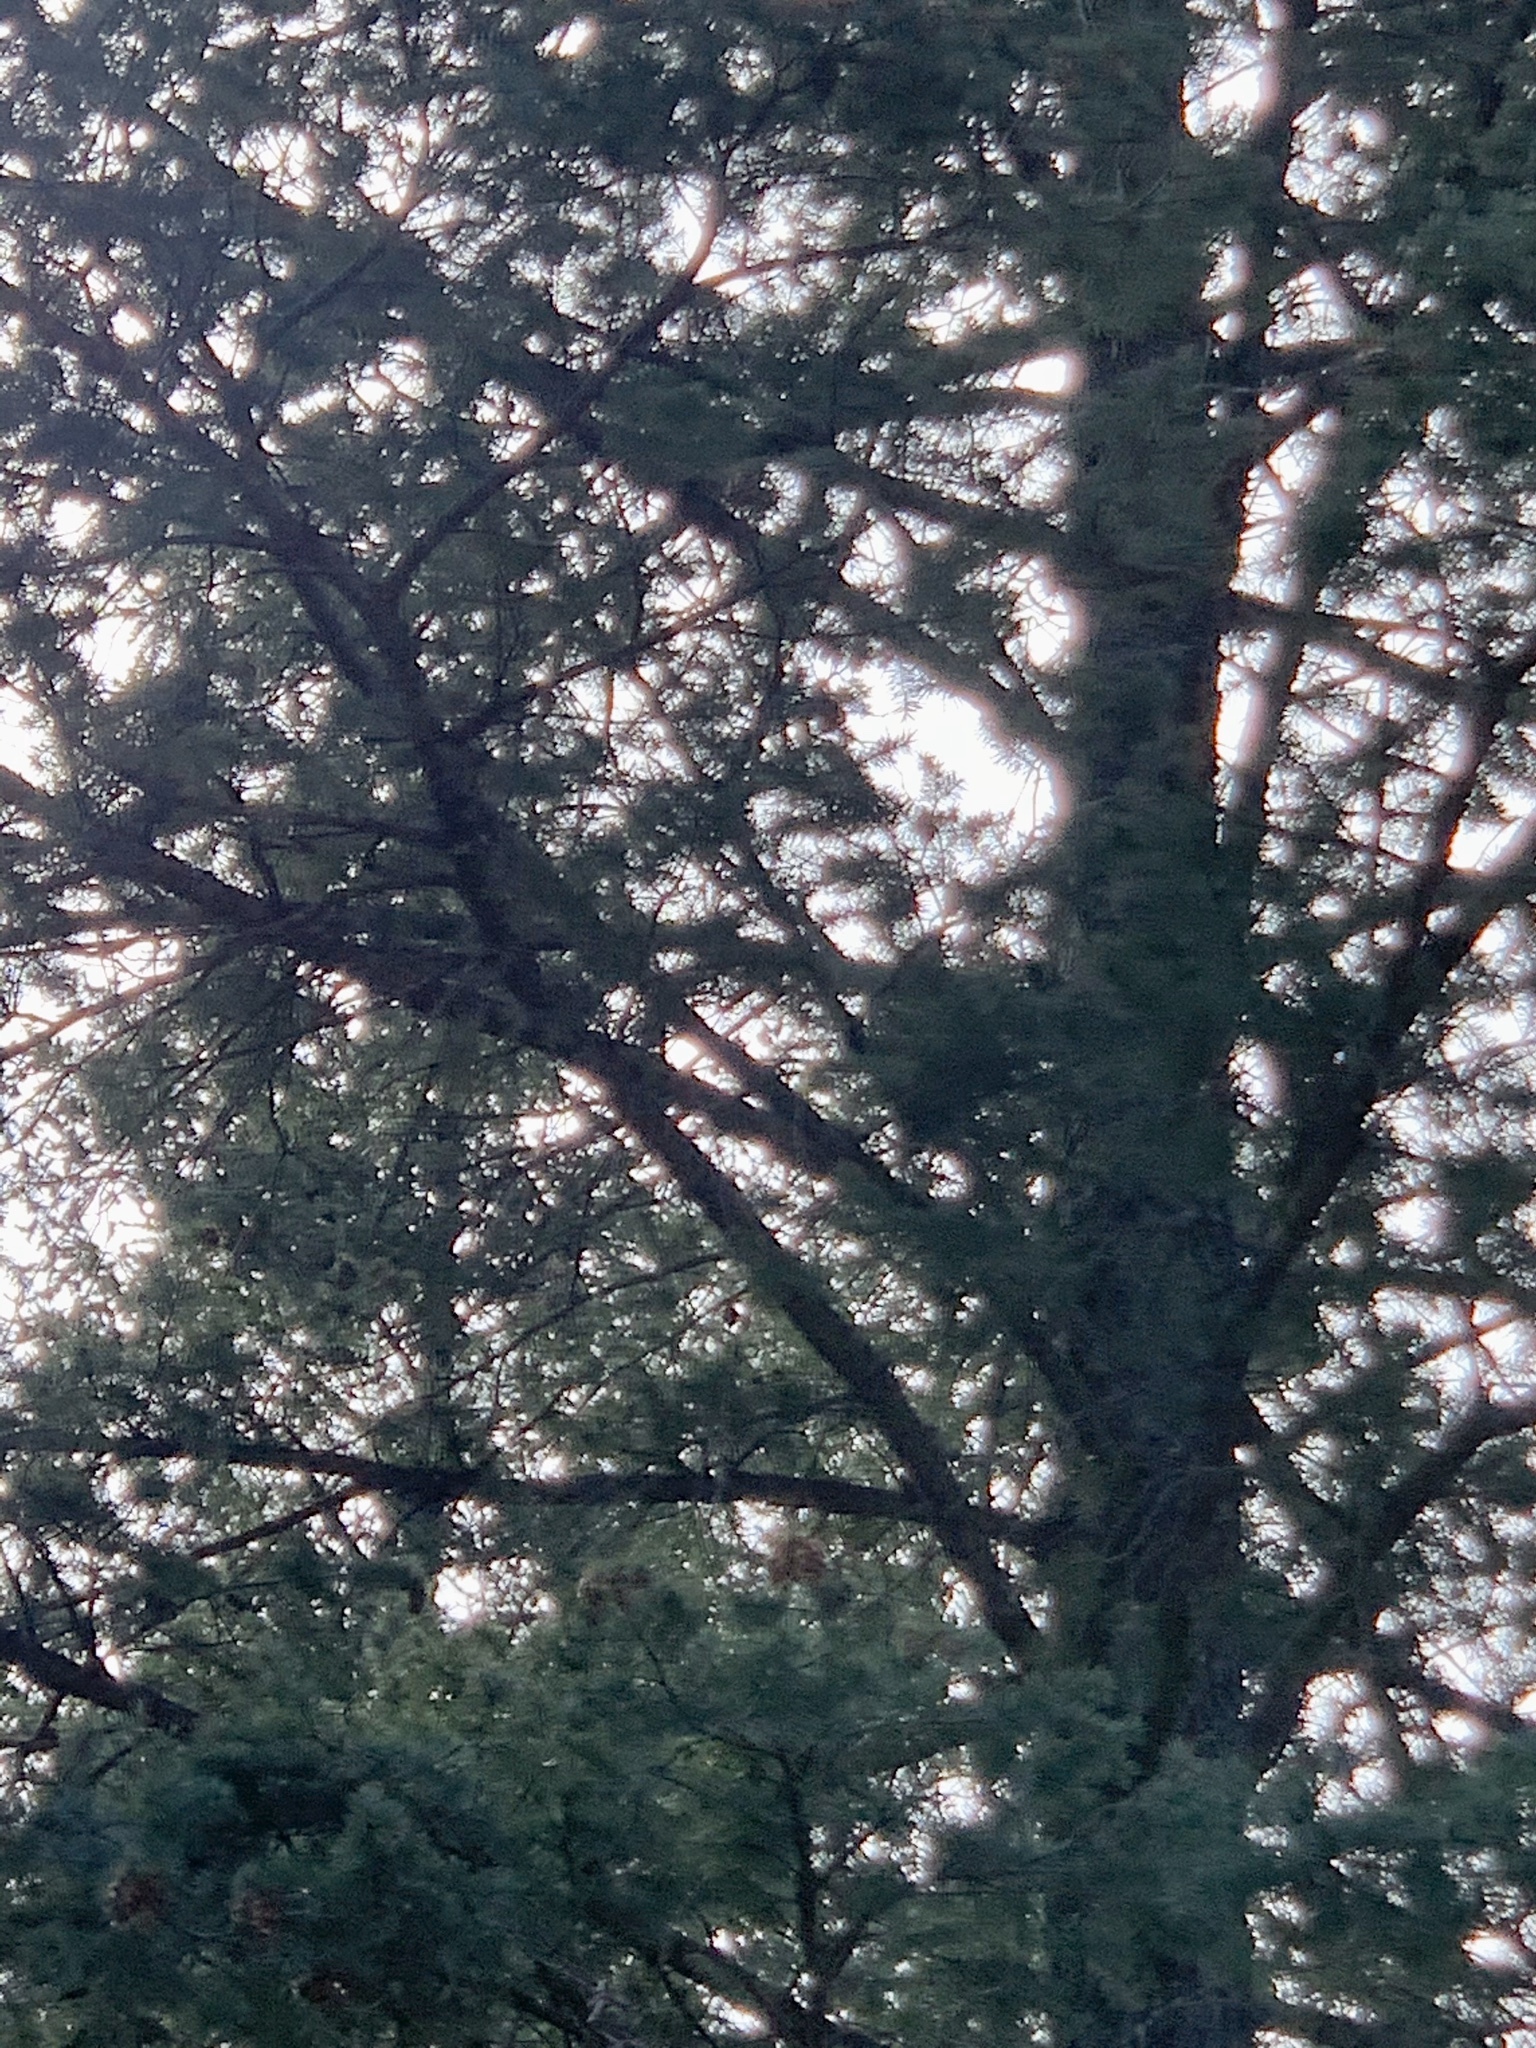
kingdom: Plantae
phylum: Tracheophyta
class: Pinopsida
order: Pinales
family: Pinaceae
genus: Pseudotsuga
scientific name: Pseudotsuga menziesii
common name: Douglas fir
